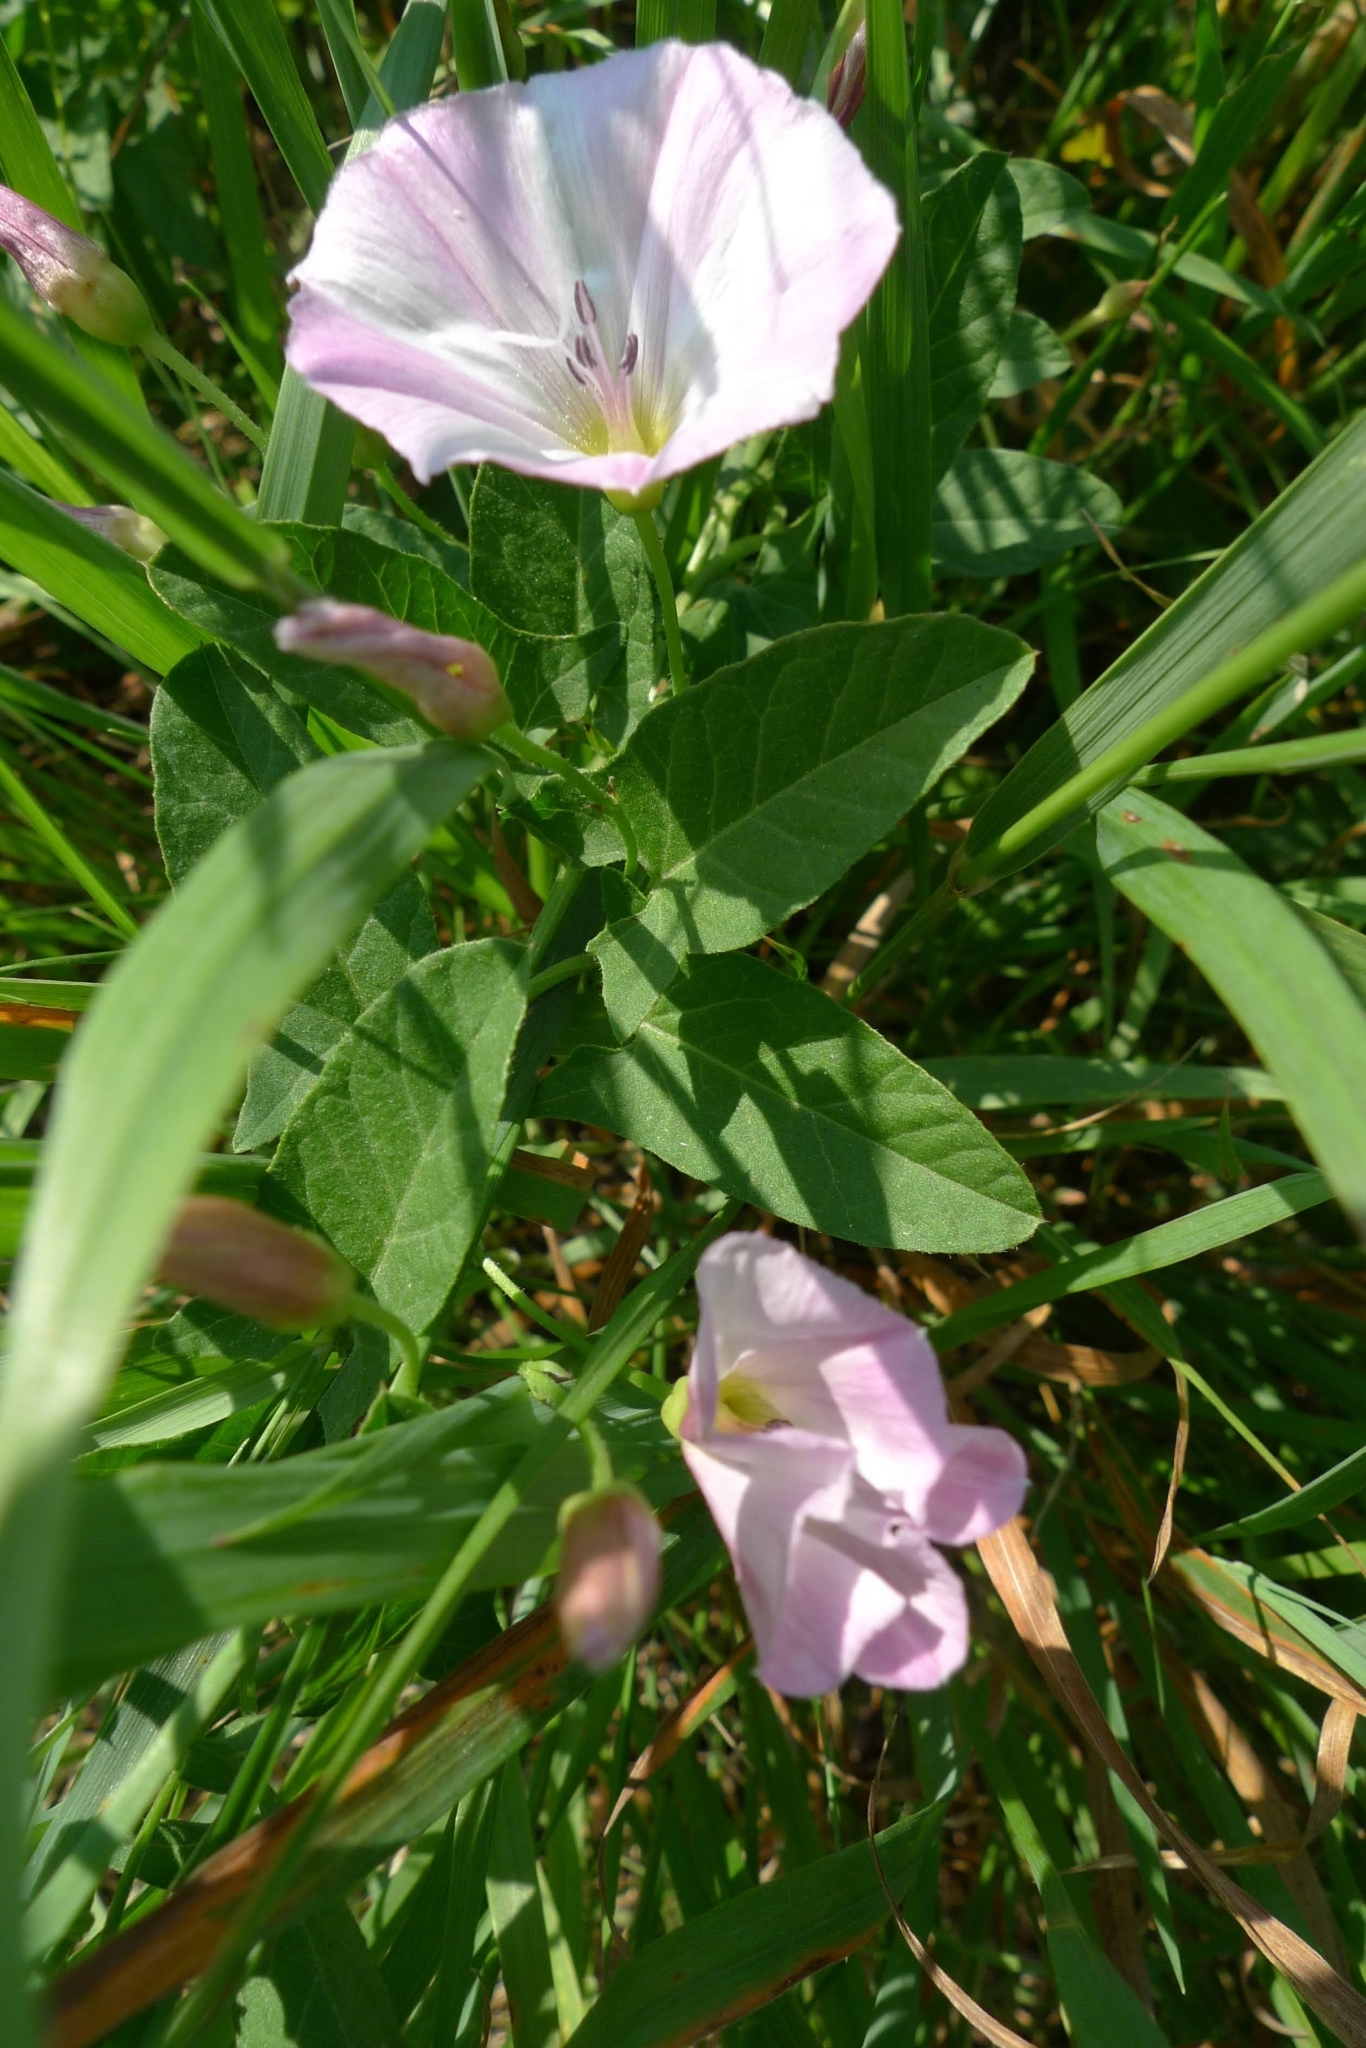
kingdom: Plantae
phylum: Tracheophyta
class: Magnoliopsida
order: Solanales
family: Convolvulaceae
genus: Convolvulus
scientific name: Convolvulus arvensis
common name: Field bindweed
